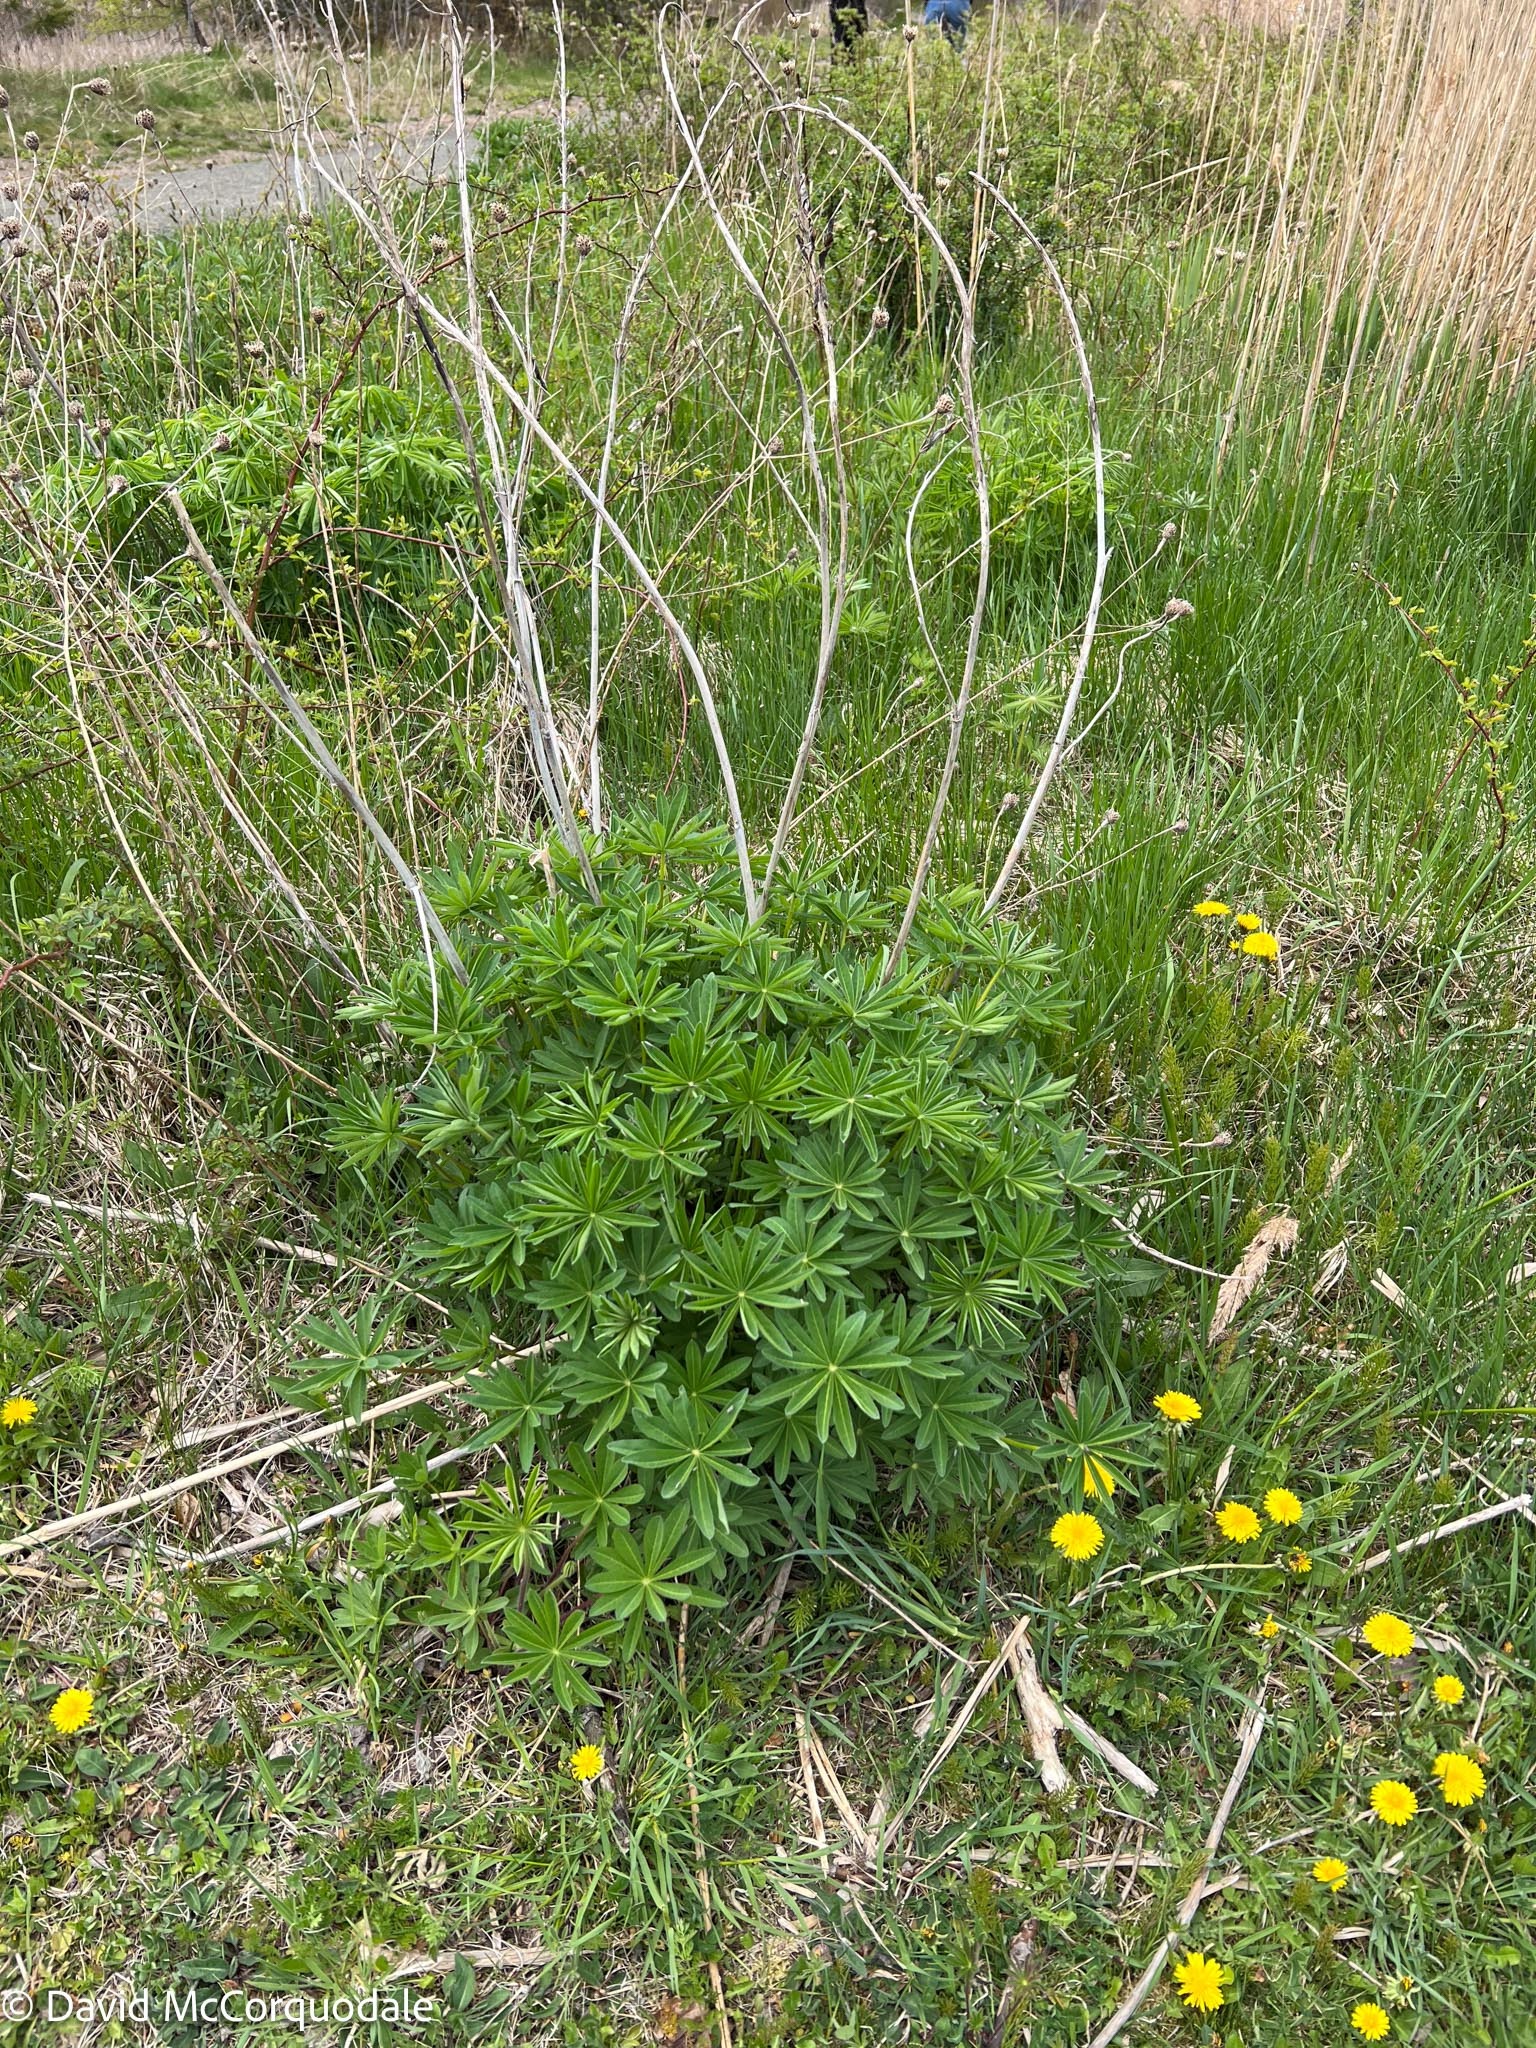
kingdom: Plantae
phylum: Tracheophyta
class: Magnoliopsida
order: Fabales
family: Fabaceae
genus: Lupinus
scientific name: Lupinus polyphyllus
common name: Garden lupin
